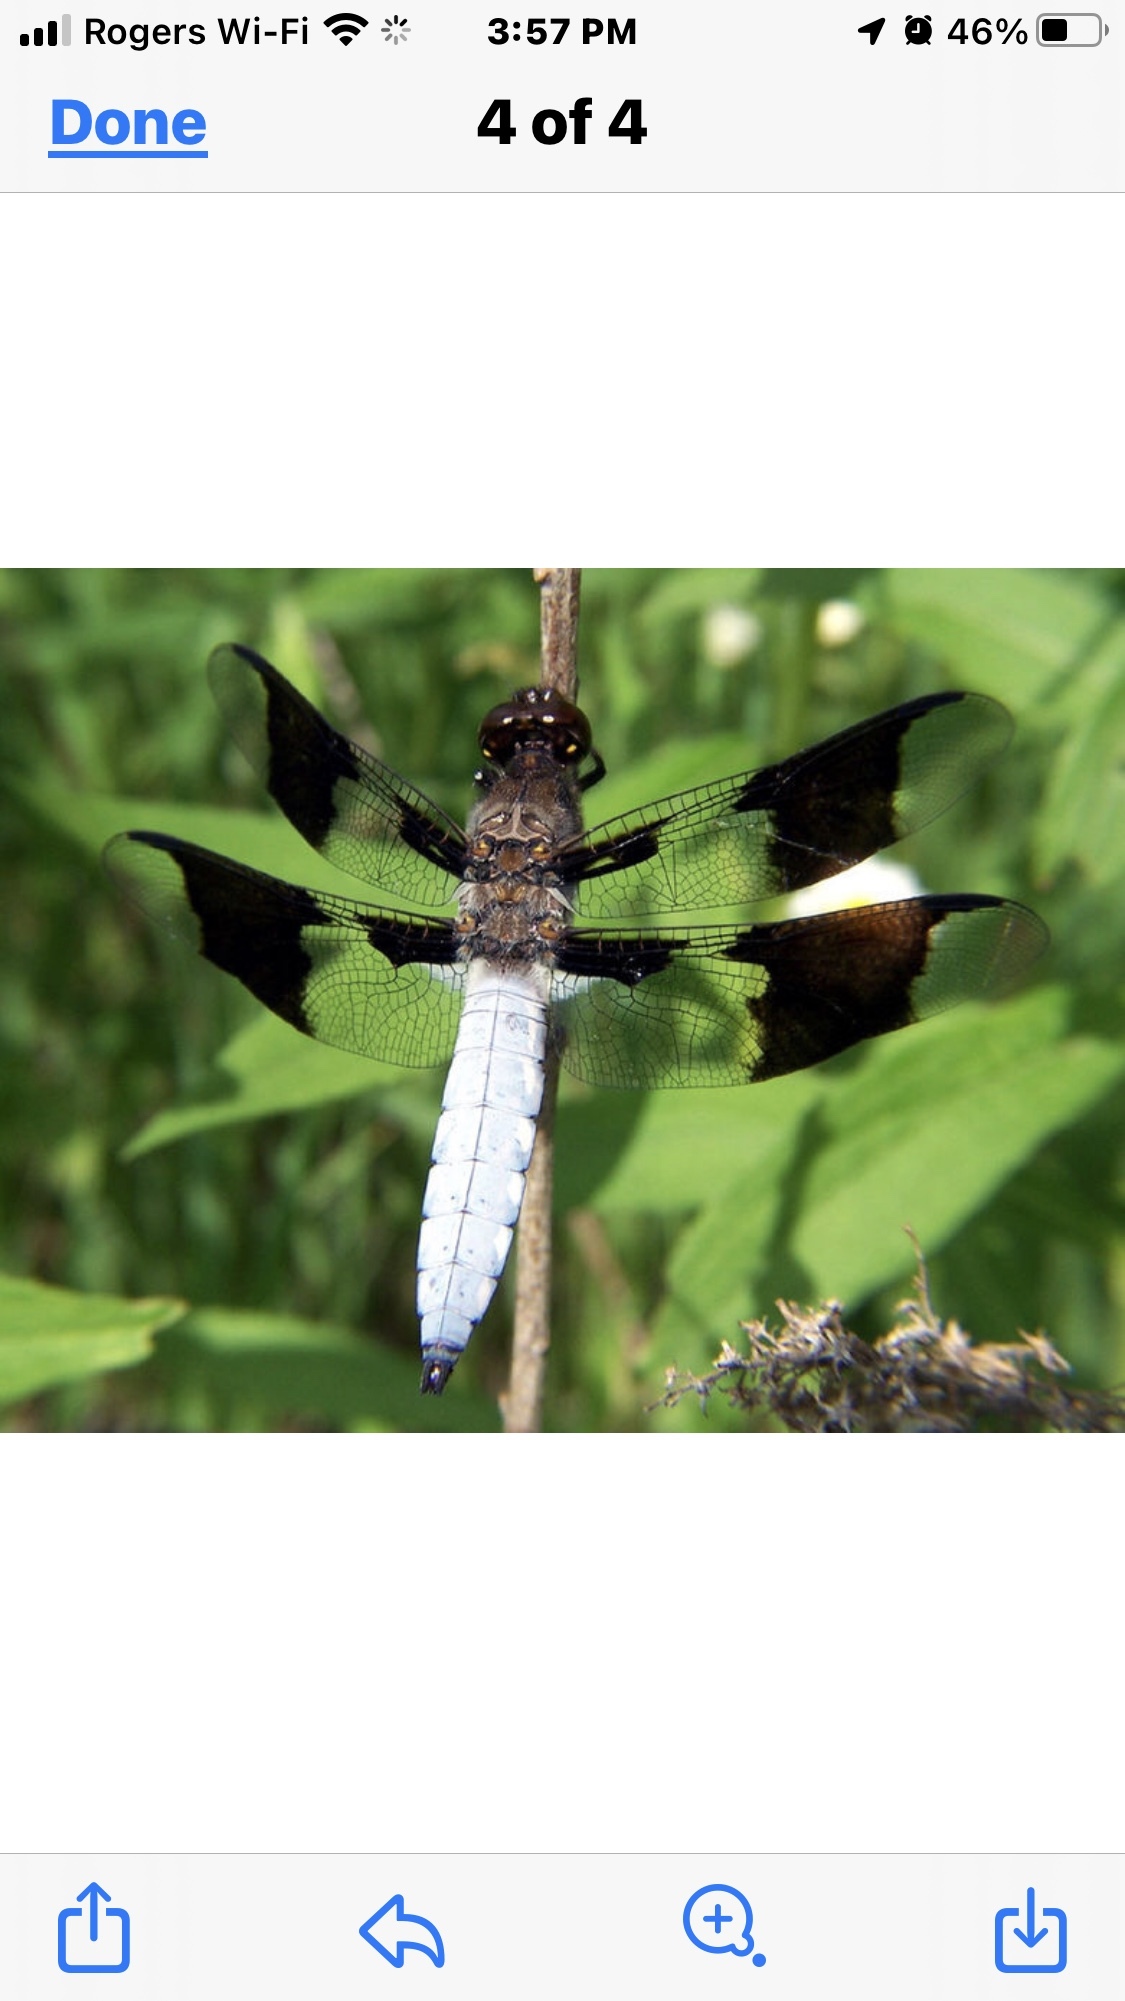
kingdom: Animalia
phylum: Arthropoda
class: Insecta
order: Odonata
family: Libellulidae
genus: Plathemis
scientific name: Plathemis lydia
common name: Common whitetail
